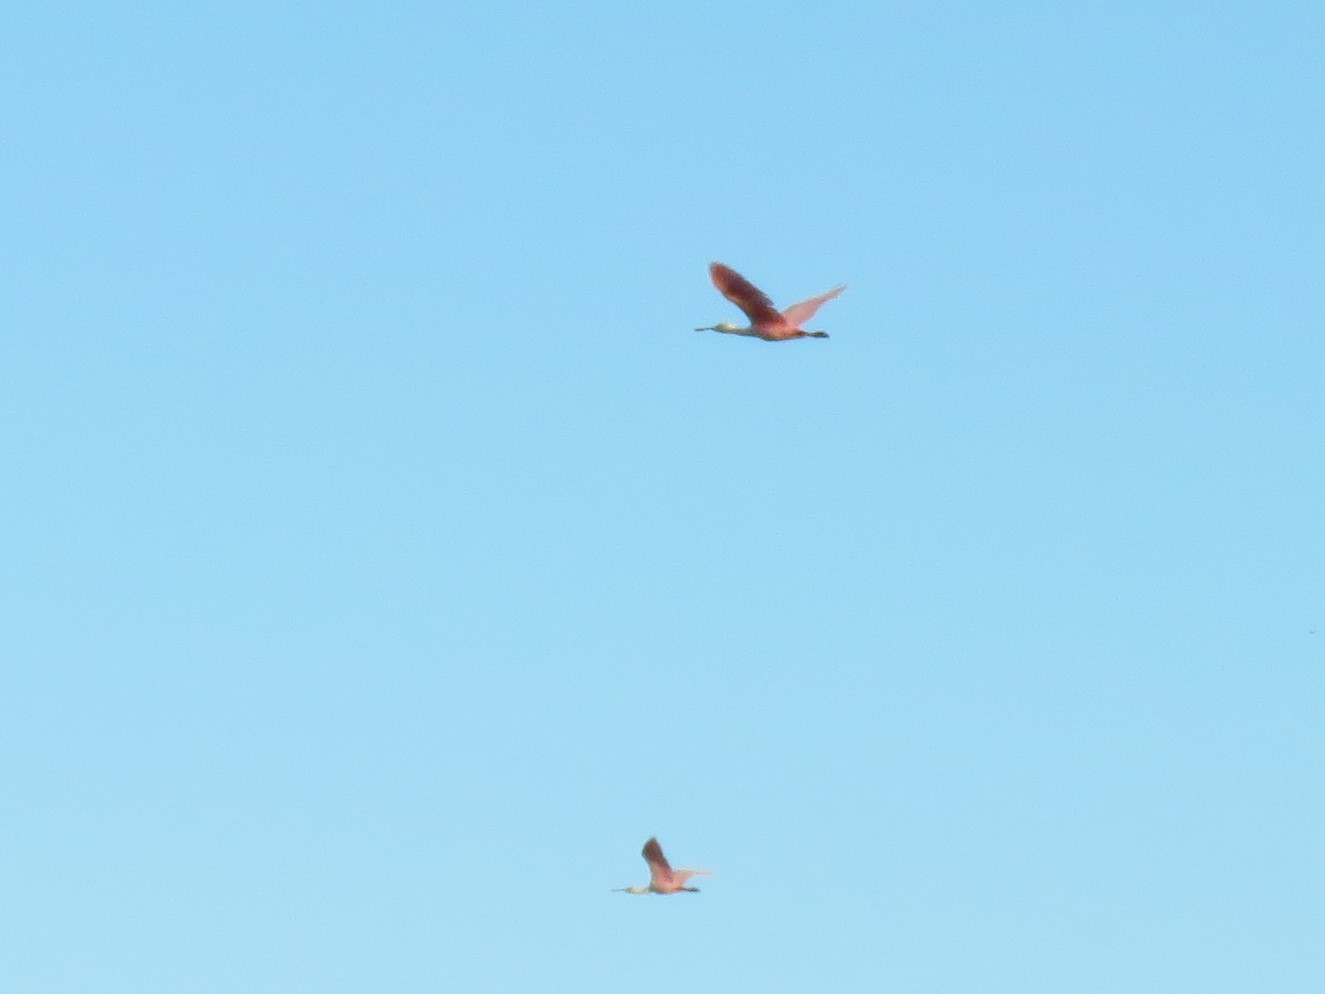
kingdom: Animalia
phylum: Chordata
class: Aves
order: Pelecaniformes
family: Threskiornithidae
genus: Platalea
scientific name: Platalea ajaja
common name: Roseate spoonbill
